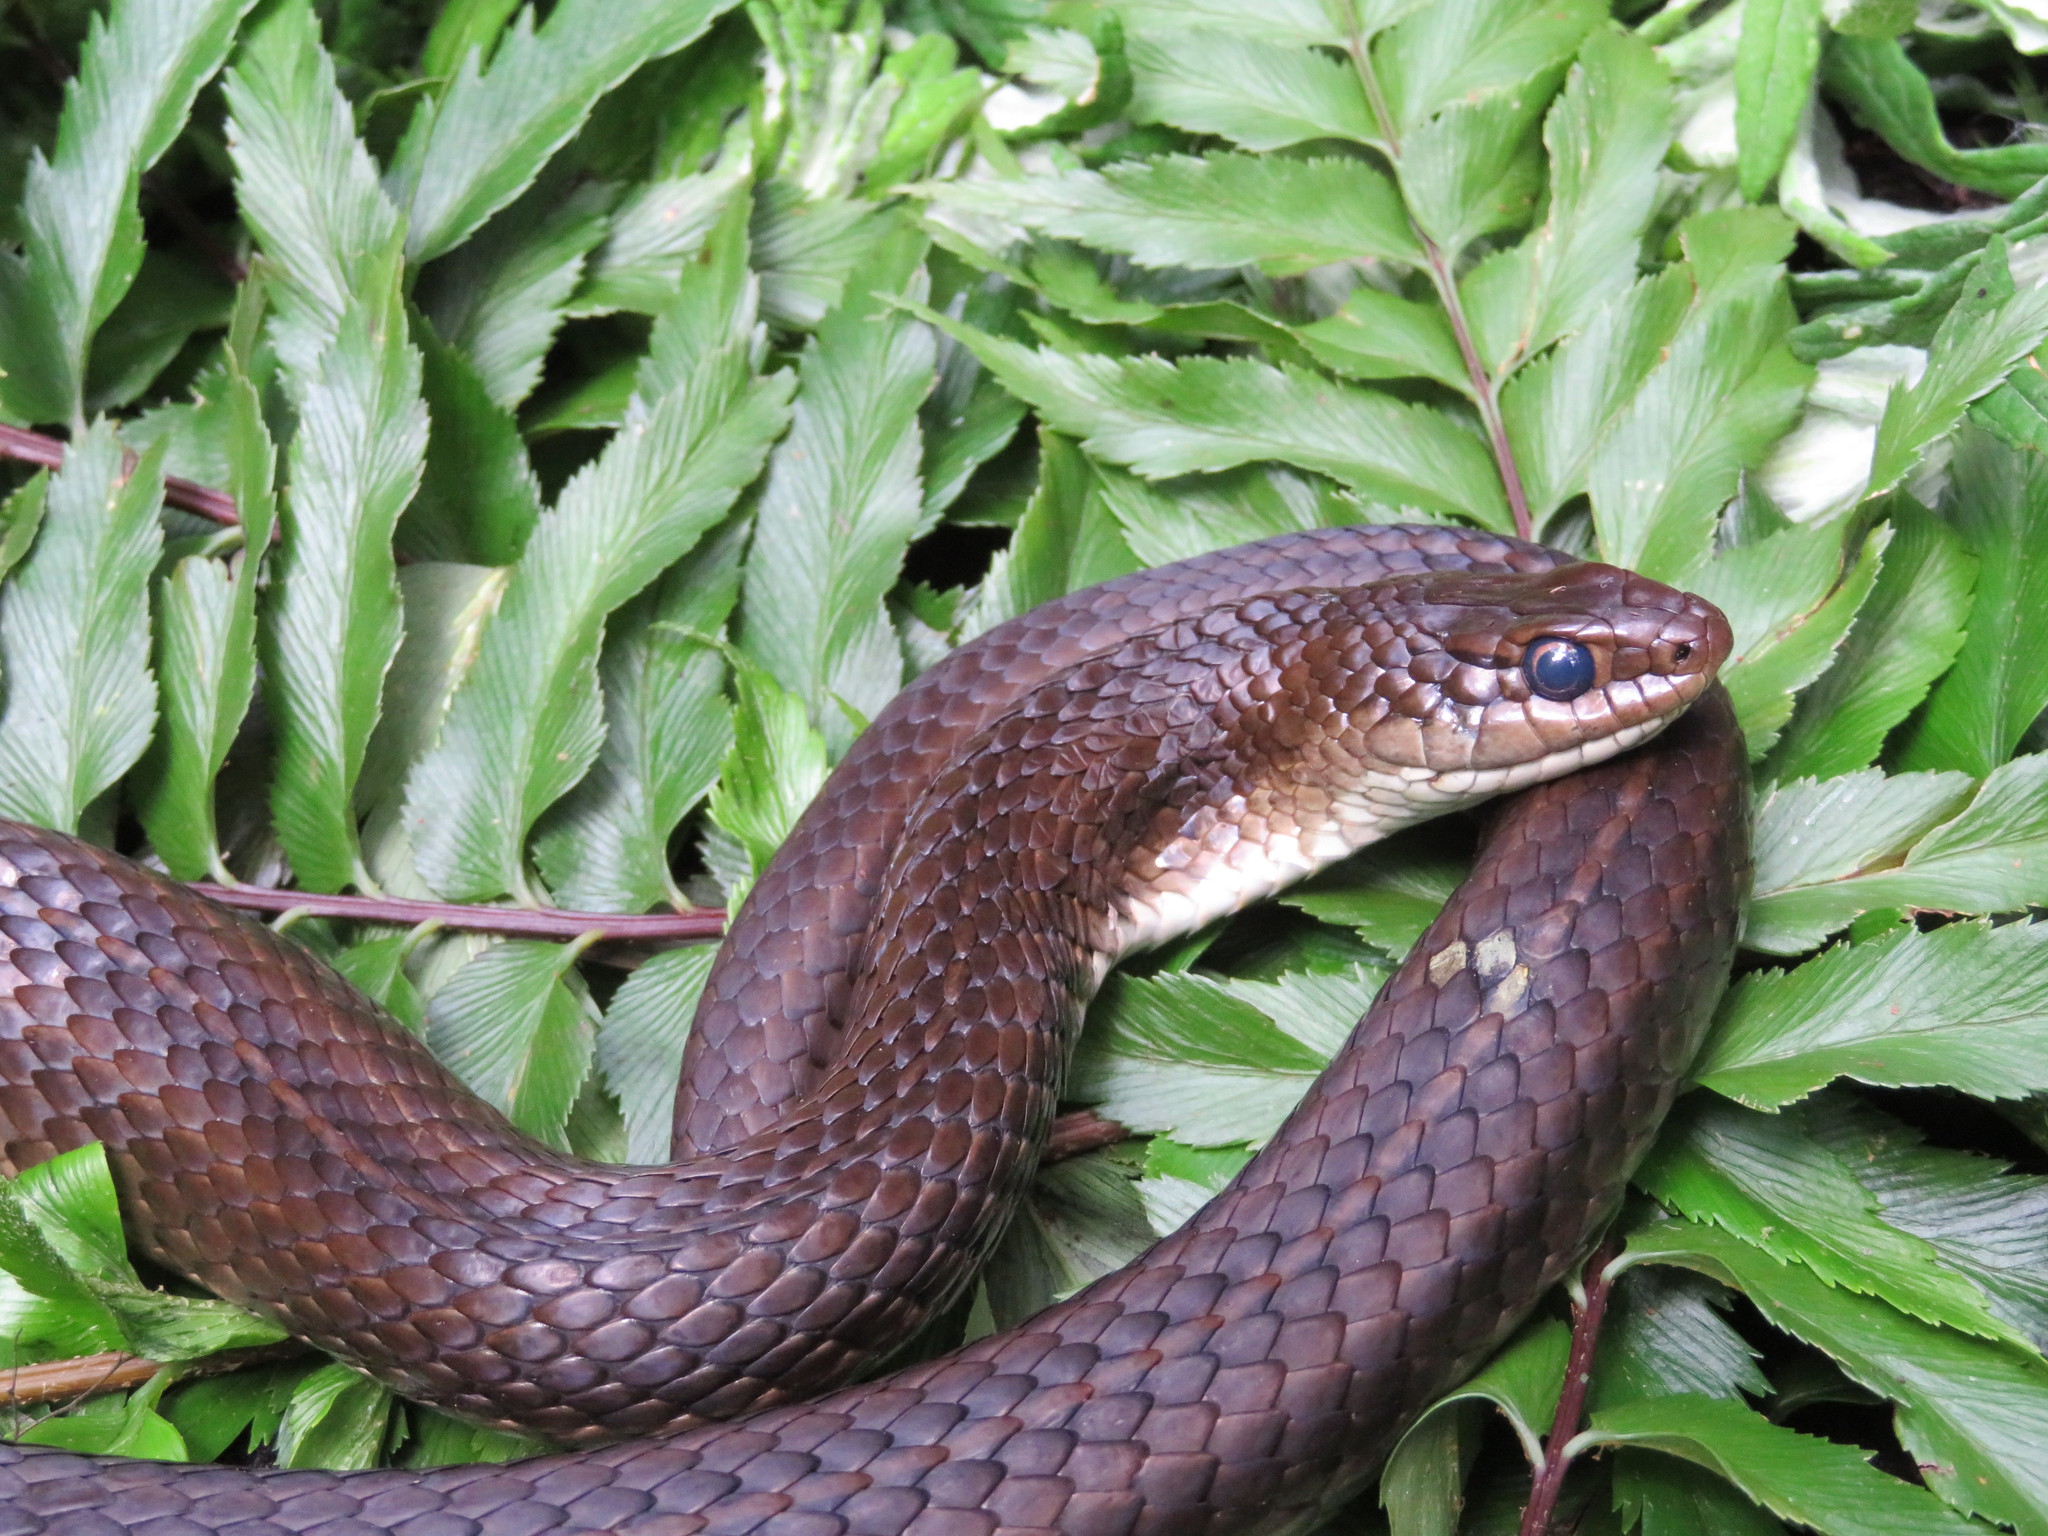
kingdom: Animalia
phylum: Chordata
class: Squamata
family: Psammophiidae
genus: Psammophylax
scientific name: Psammophylax variabilis
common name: Grey-bellied grass snake
